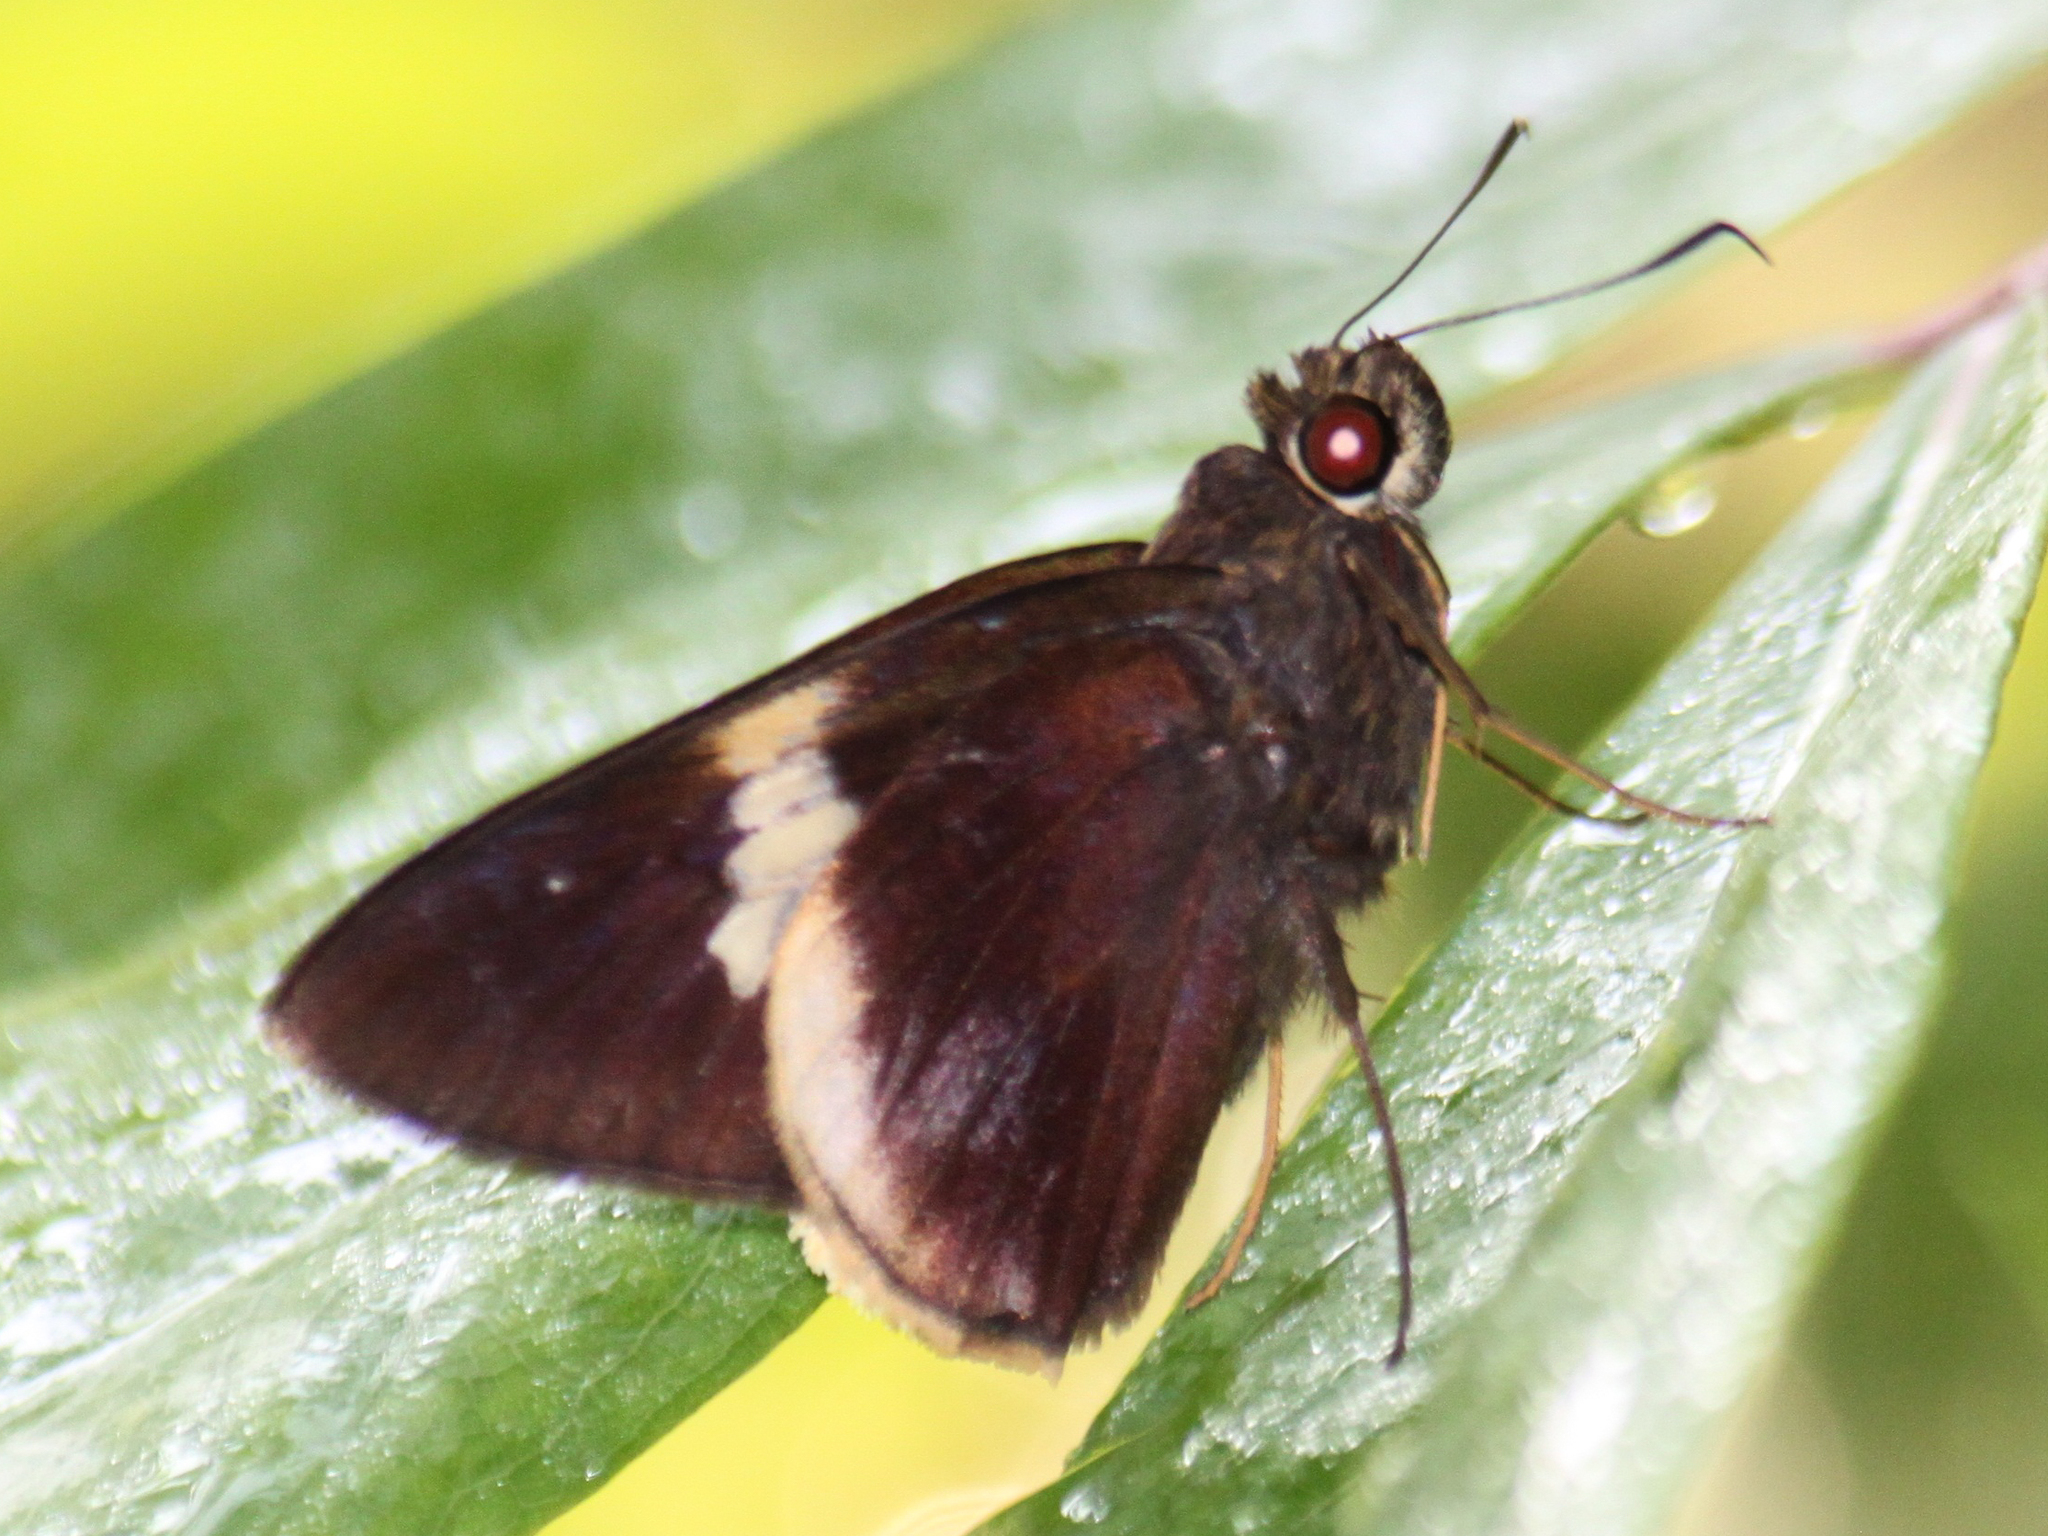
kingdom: Animalia
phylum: Arthropoda
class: Insecta
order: Lepidoptera
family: Hesperiidae
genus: Lotongus
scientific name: Lotongus calathus
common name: White-tipped palmer
